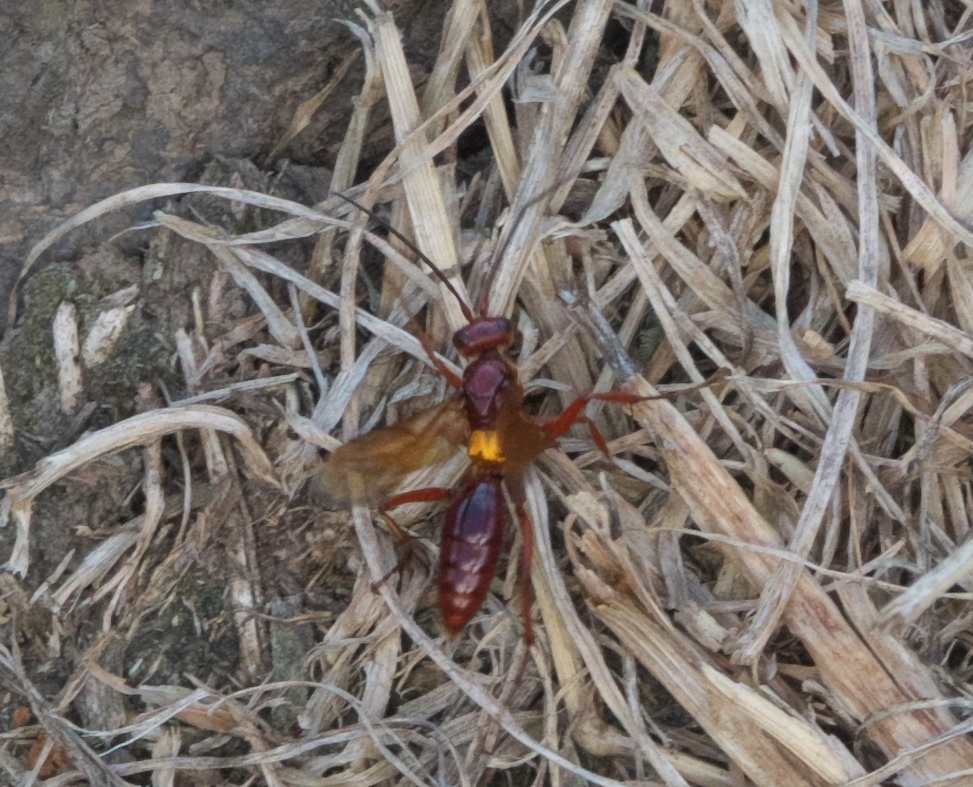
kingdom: Animalia
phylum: Arthropoda
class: Insecta
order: Hymenoptera
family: Pompilidae
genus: Sphictostethus
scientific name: Sphictostethus nitidus
